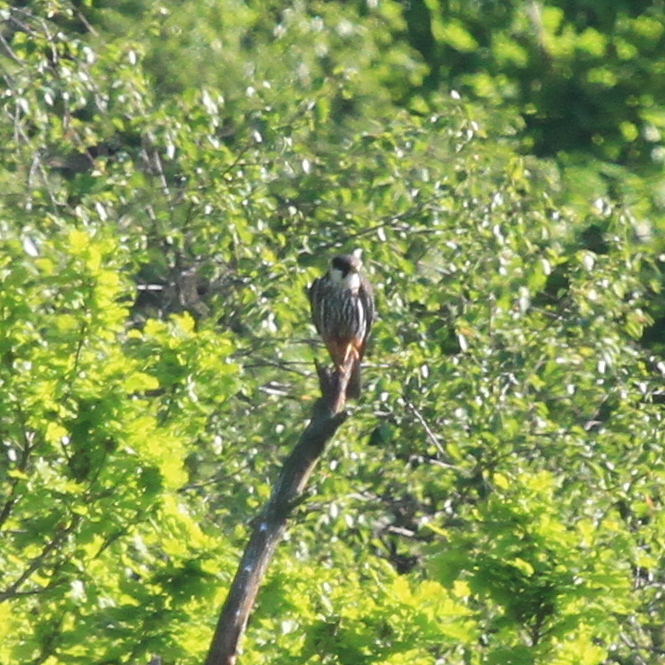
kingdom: Animalia
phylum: Chordata
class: Aves
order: Falconiformes
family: Falconidae
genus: Falco
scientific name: Falco subbuteo
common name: Eurasian hobby
